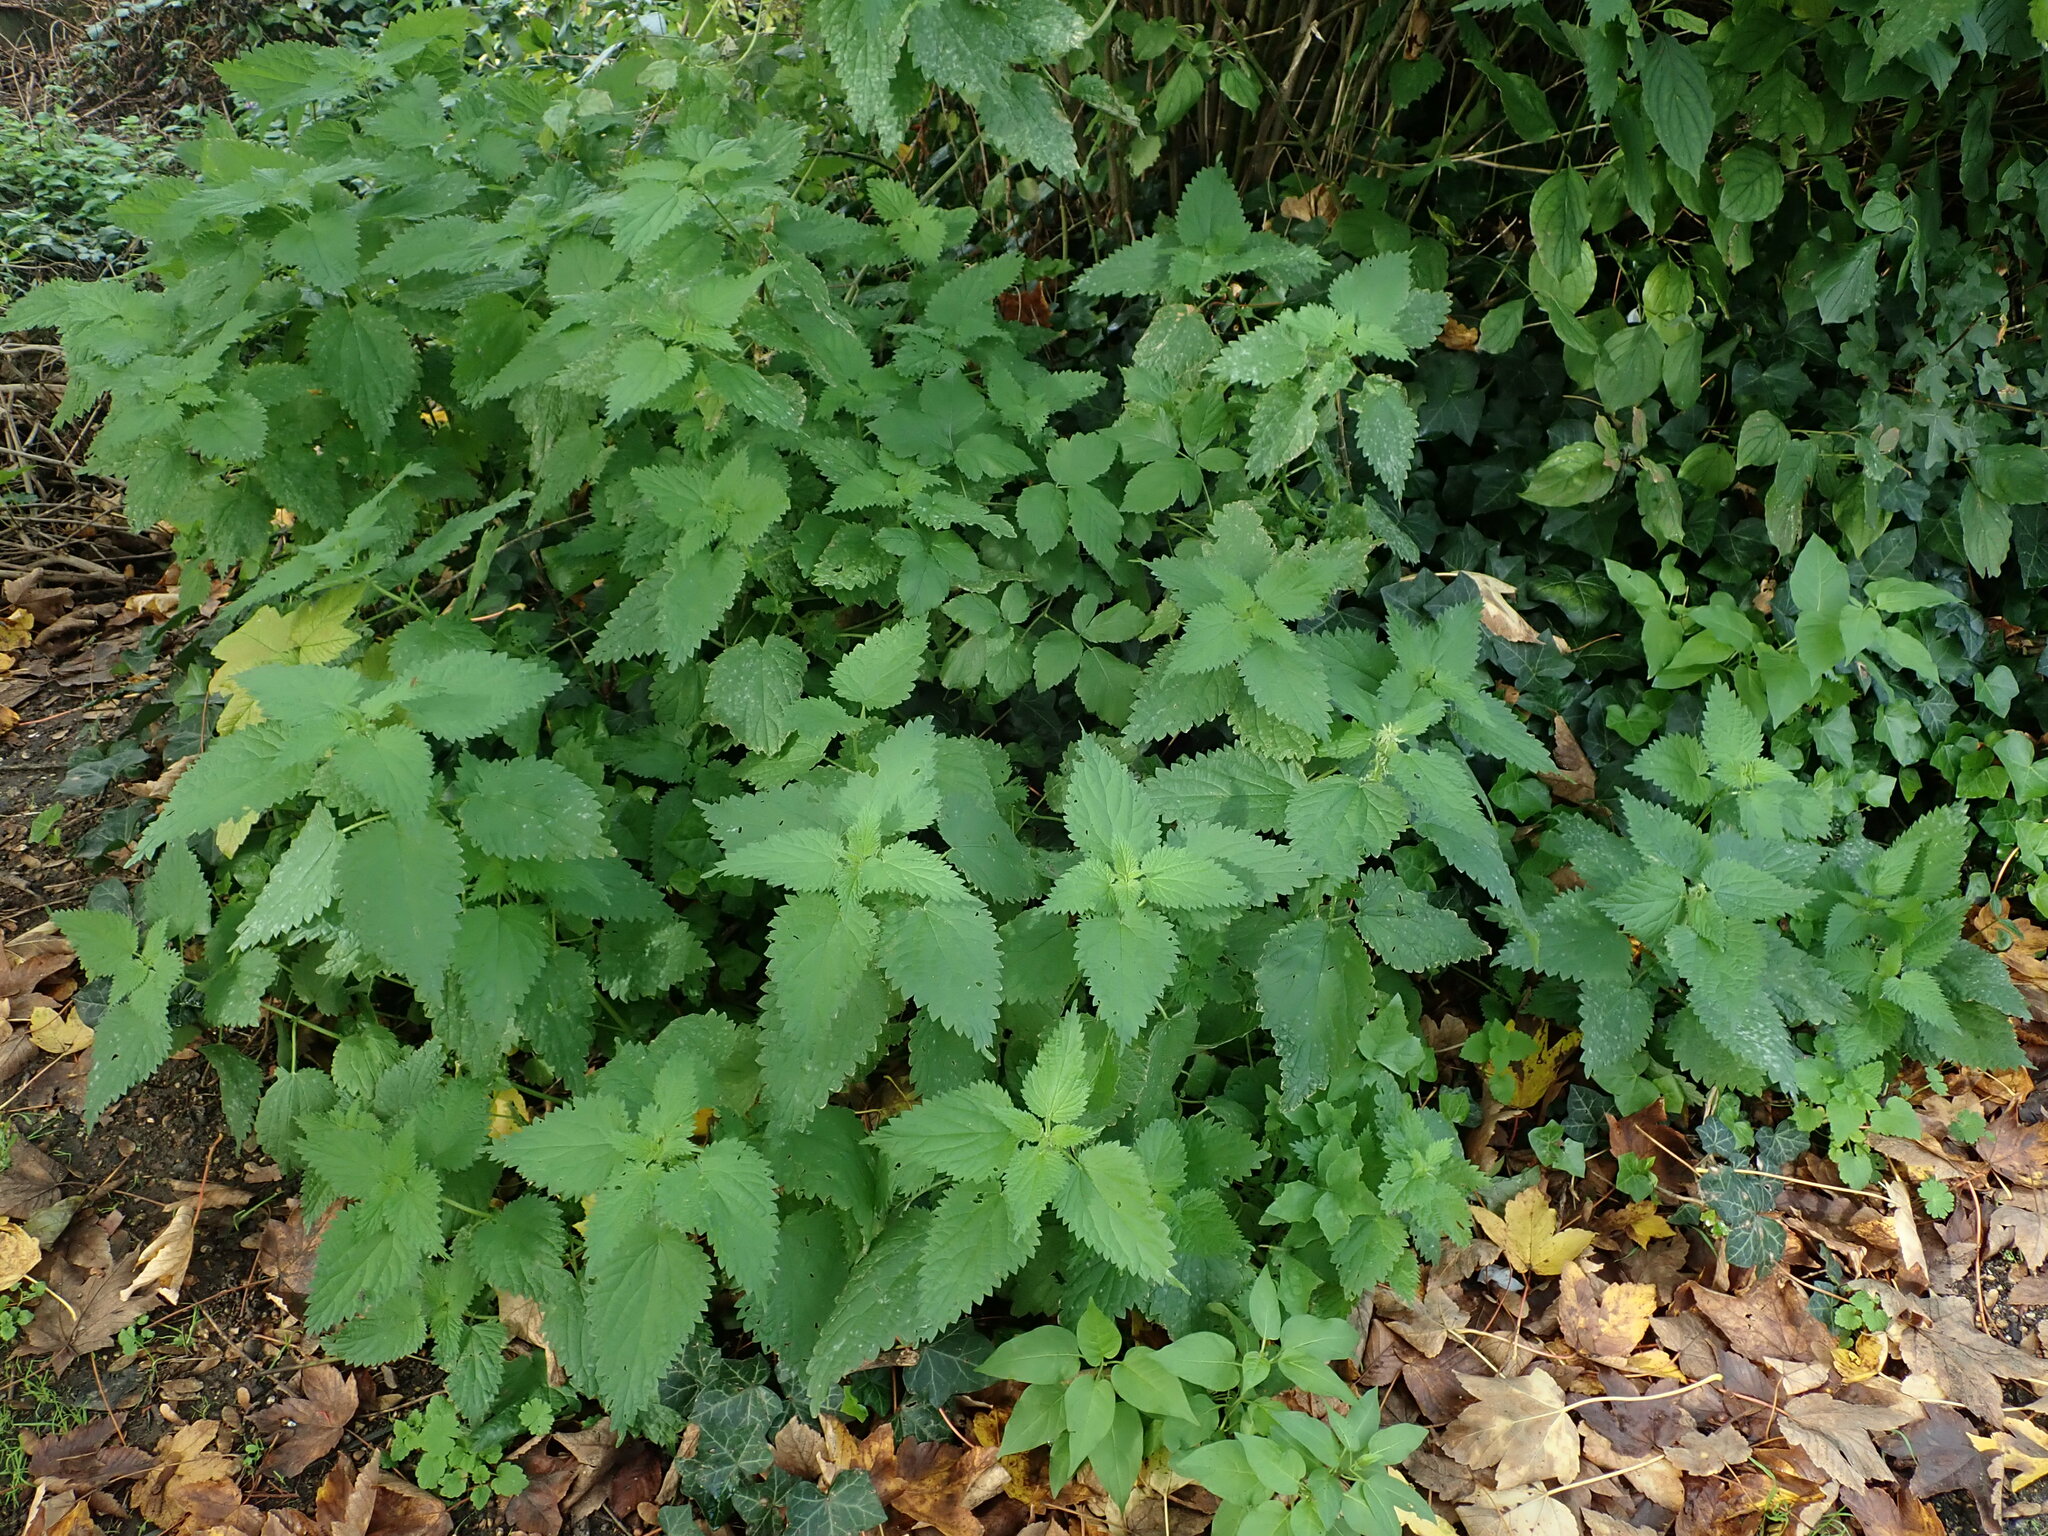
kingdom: Plantae
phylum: Tracheophyta
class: Magnoliopsida
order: Rosales
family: Urticaceae
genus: Urtica
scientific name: Urtica dioica
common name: Common nettle
